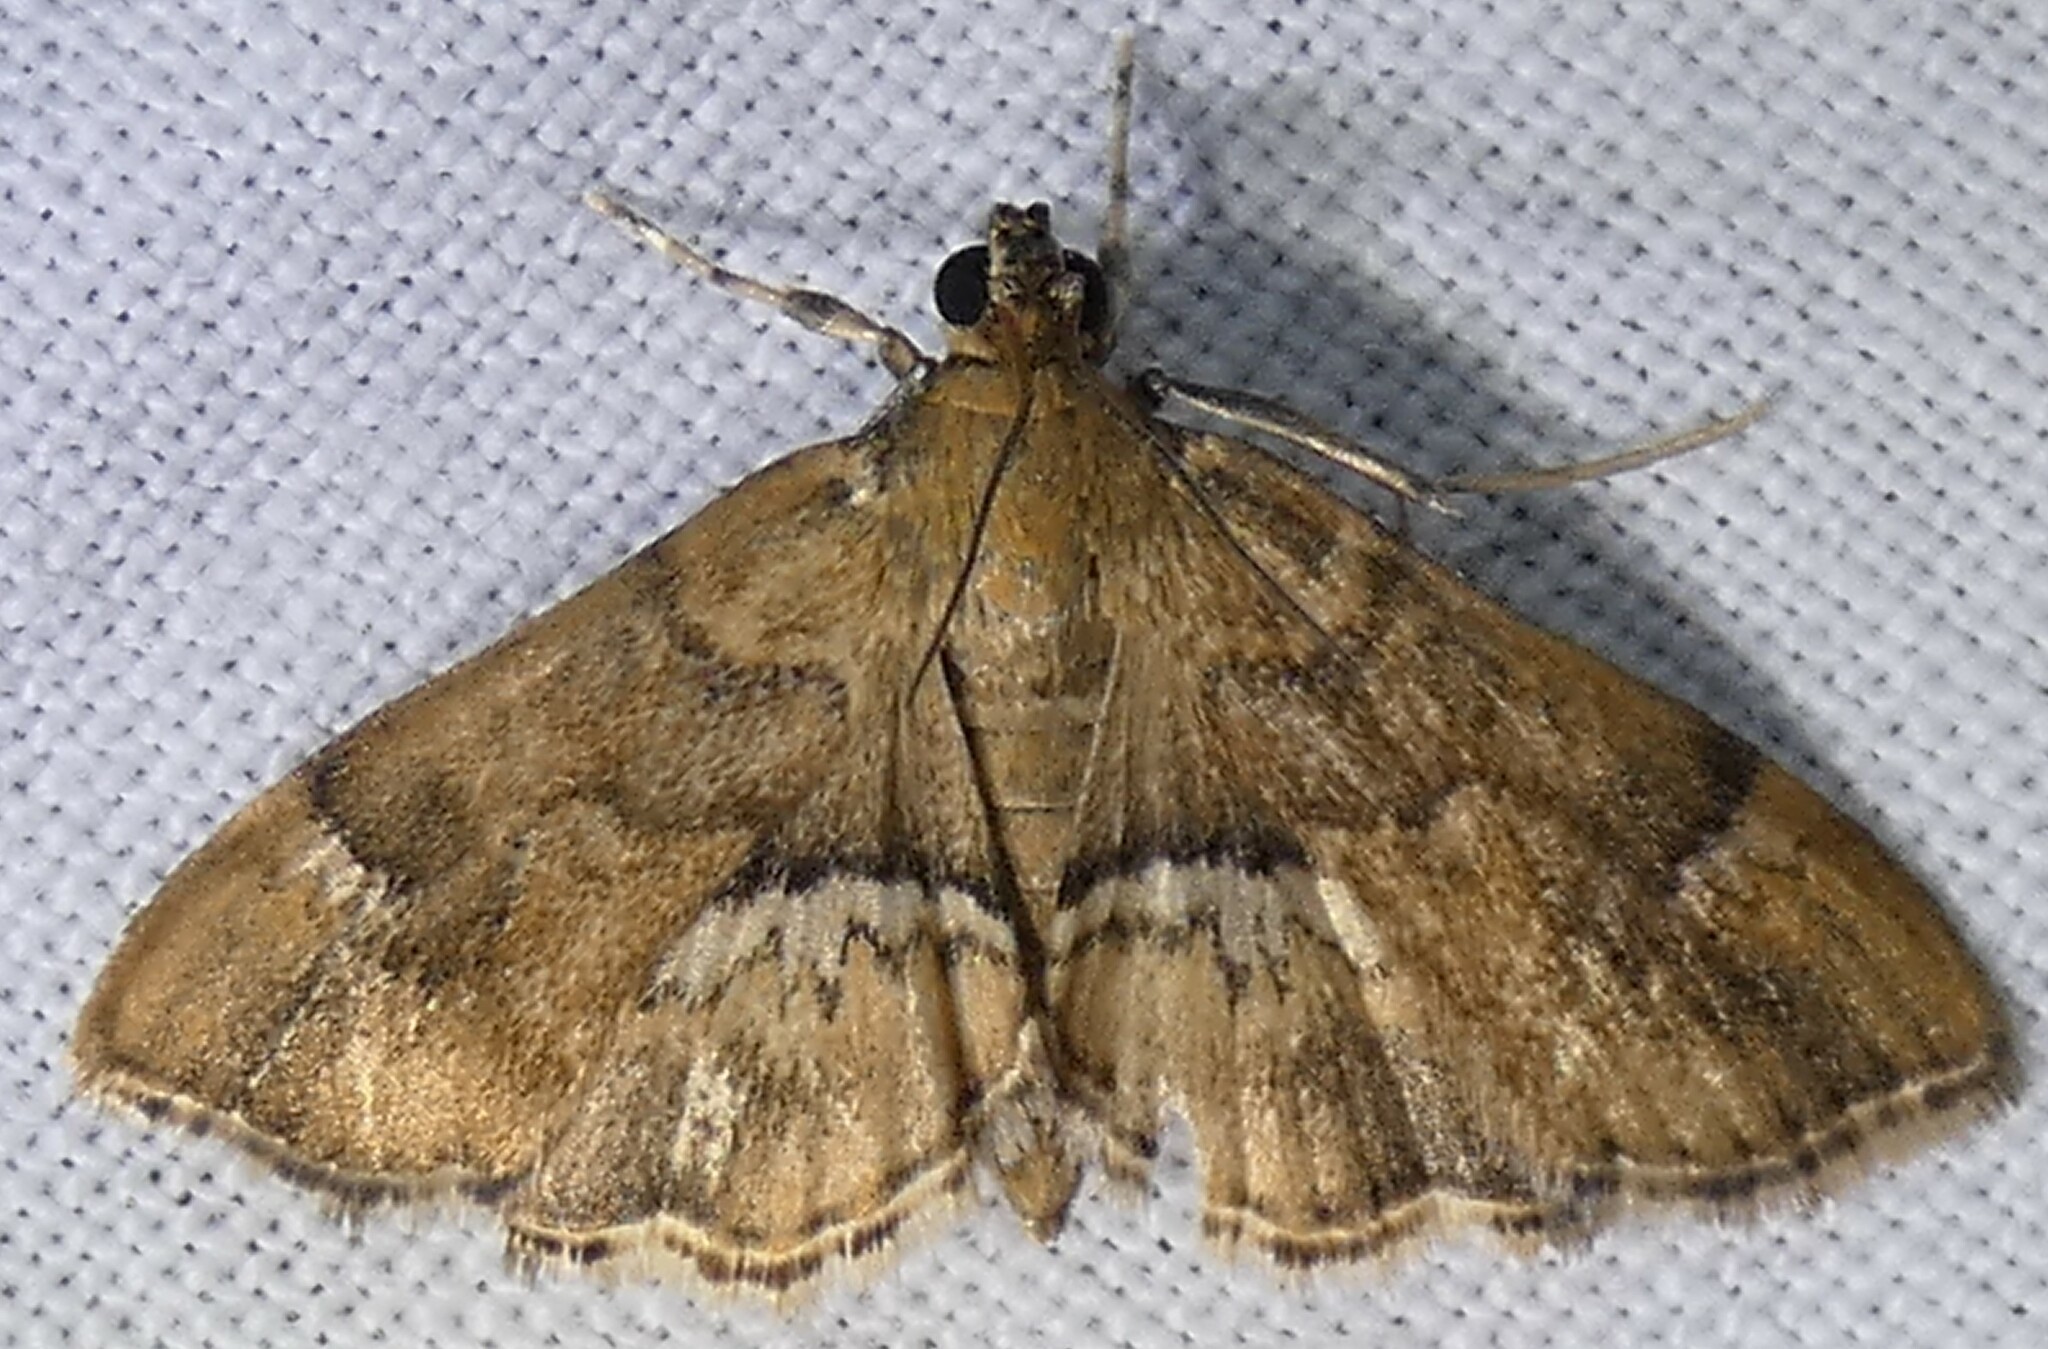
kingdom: Animalia
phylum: Arthropoda
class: Insecta
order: Lepidoptera
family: Crambidae
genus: Hymenia
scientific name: Hymenia perspectalis
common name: Spotted beet webworm
